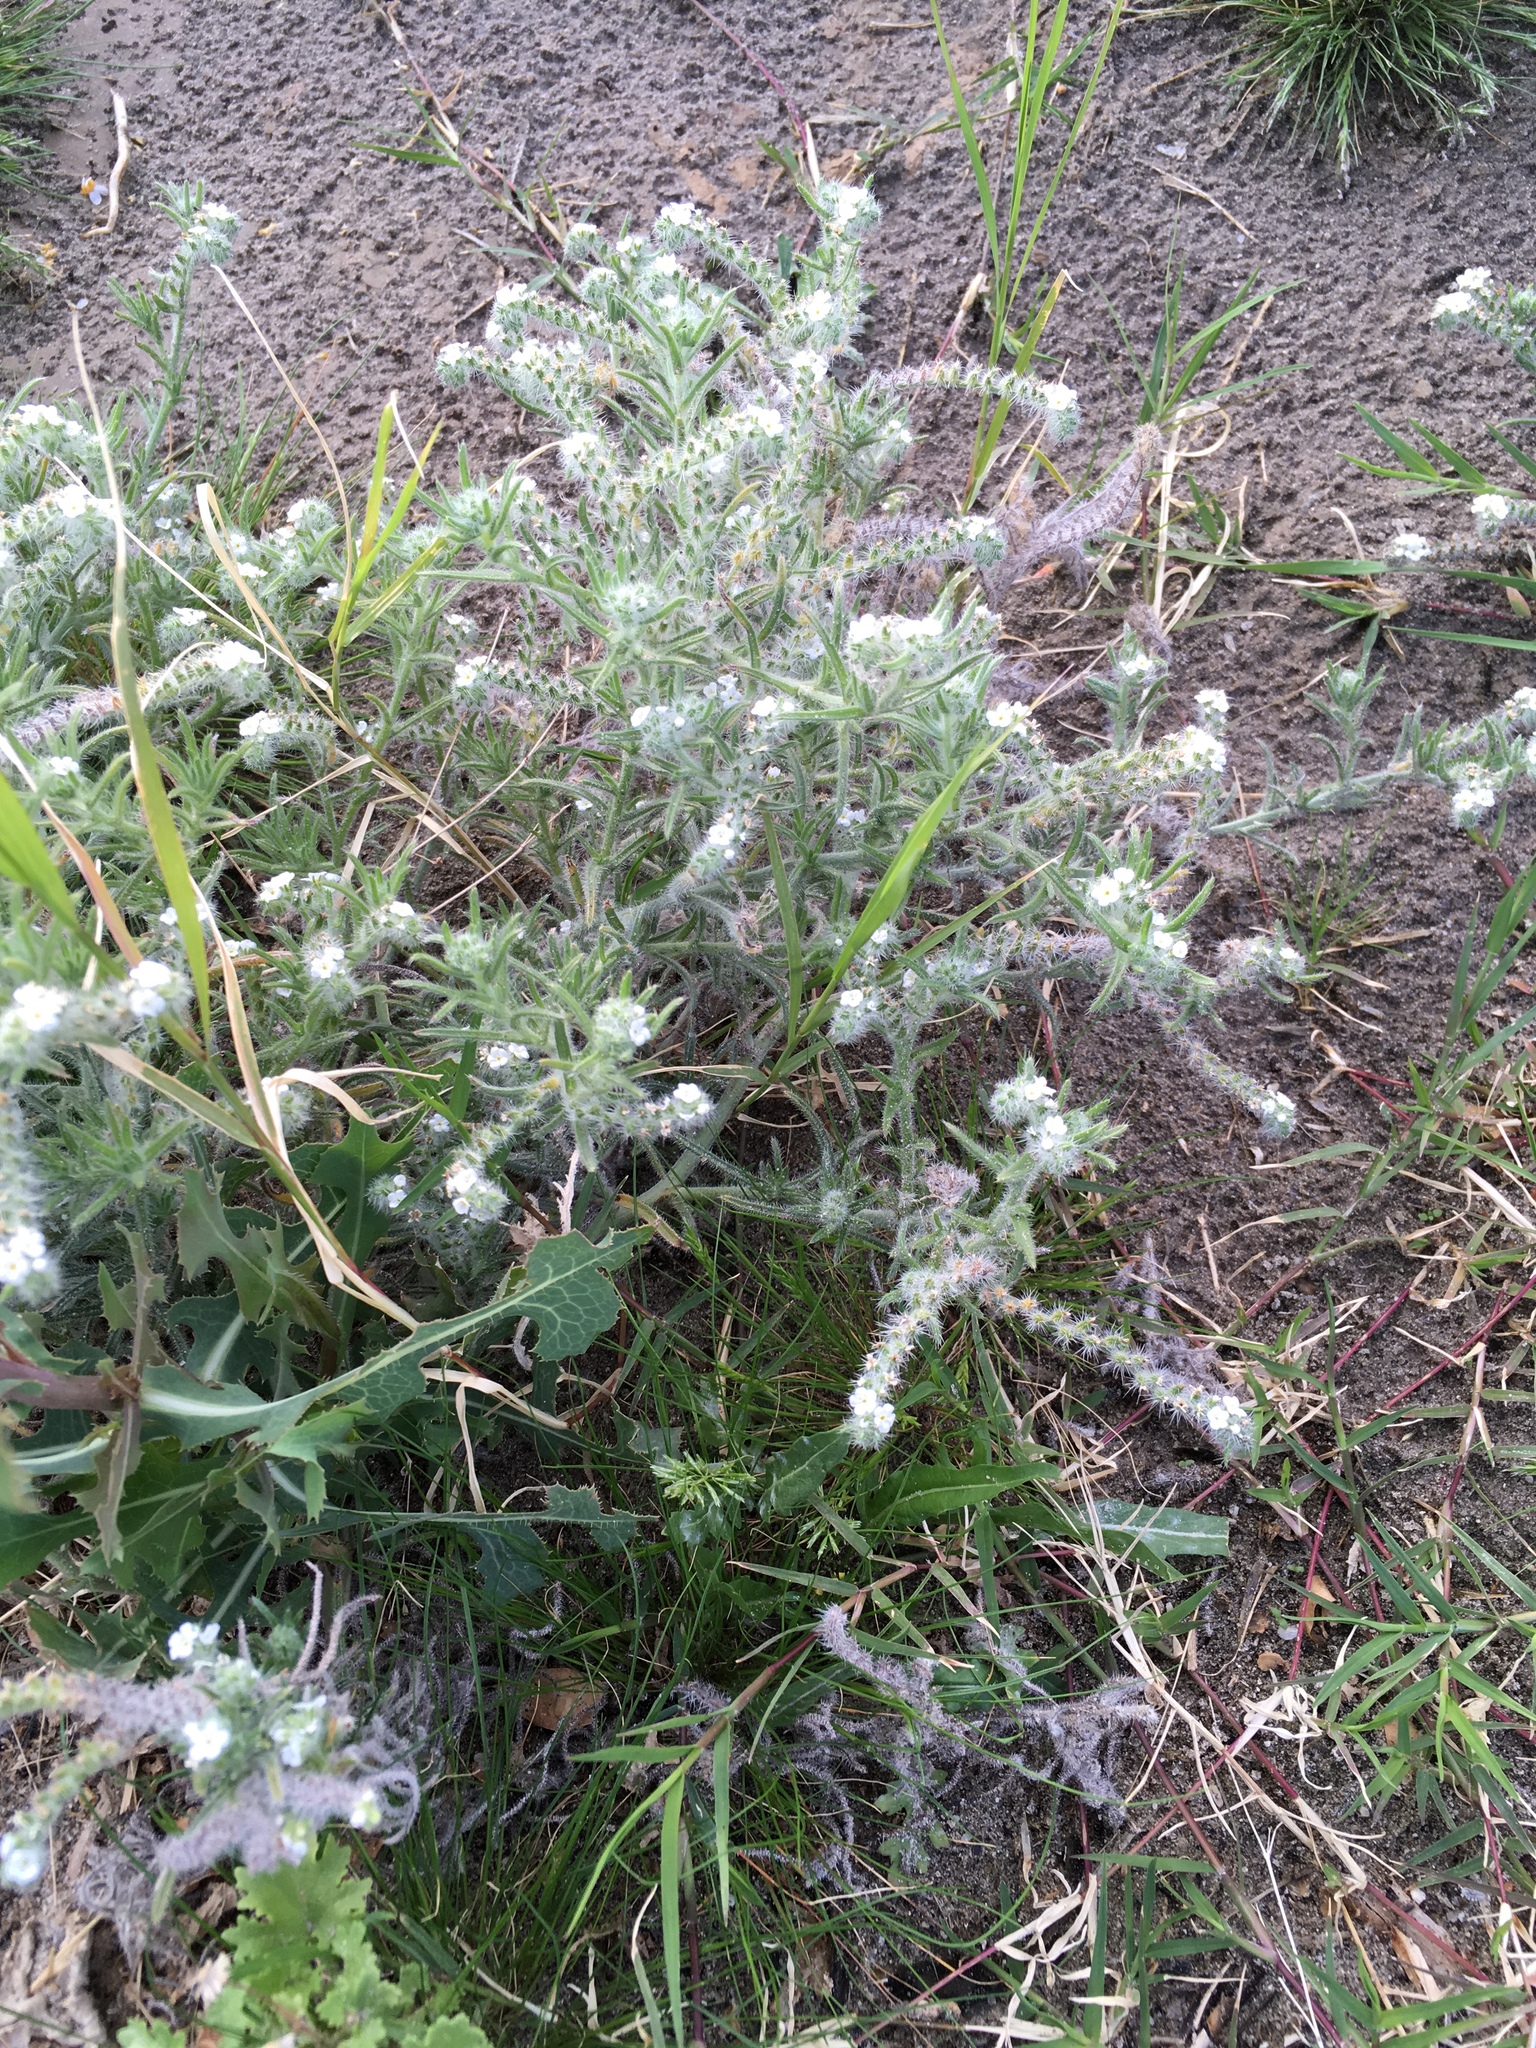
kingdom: Plantae
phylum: Tracheophyta
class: Magnoliopsida
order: Boraginales
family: Boraginaceae
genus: Johnstonella
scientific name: Johnstonella angustifolia
